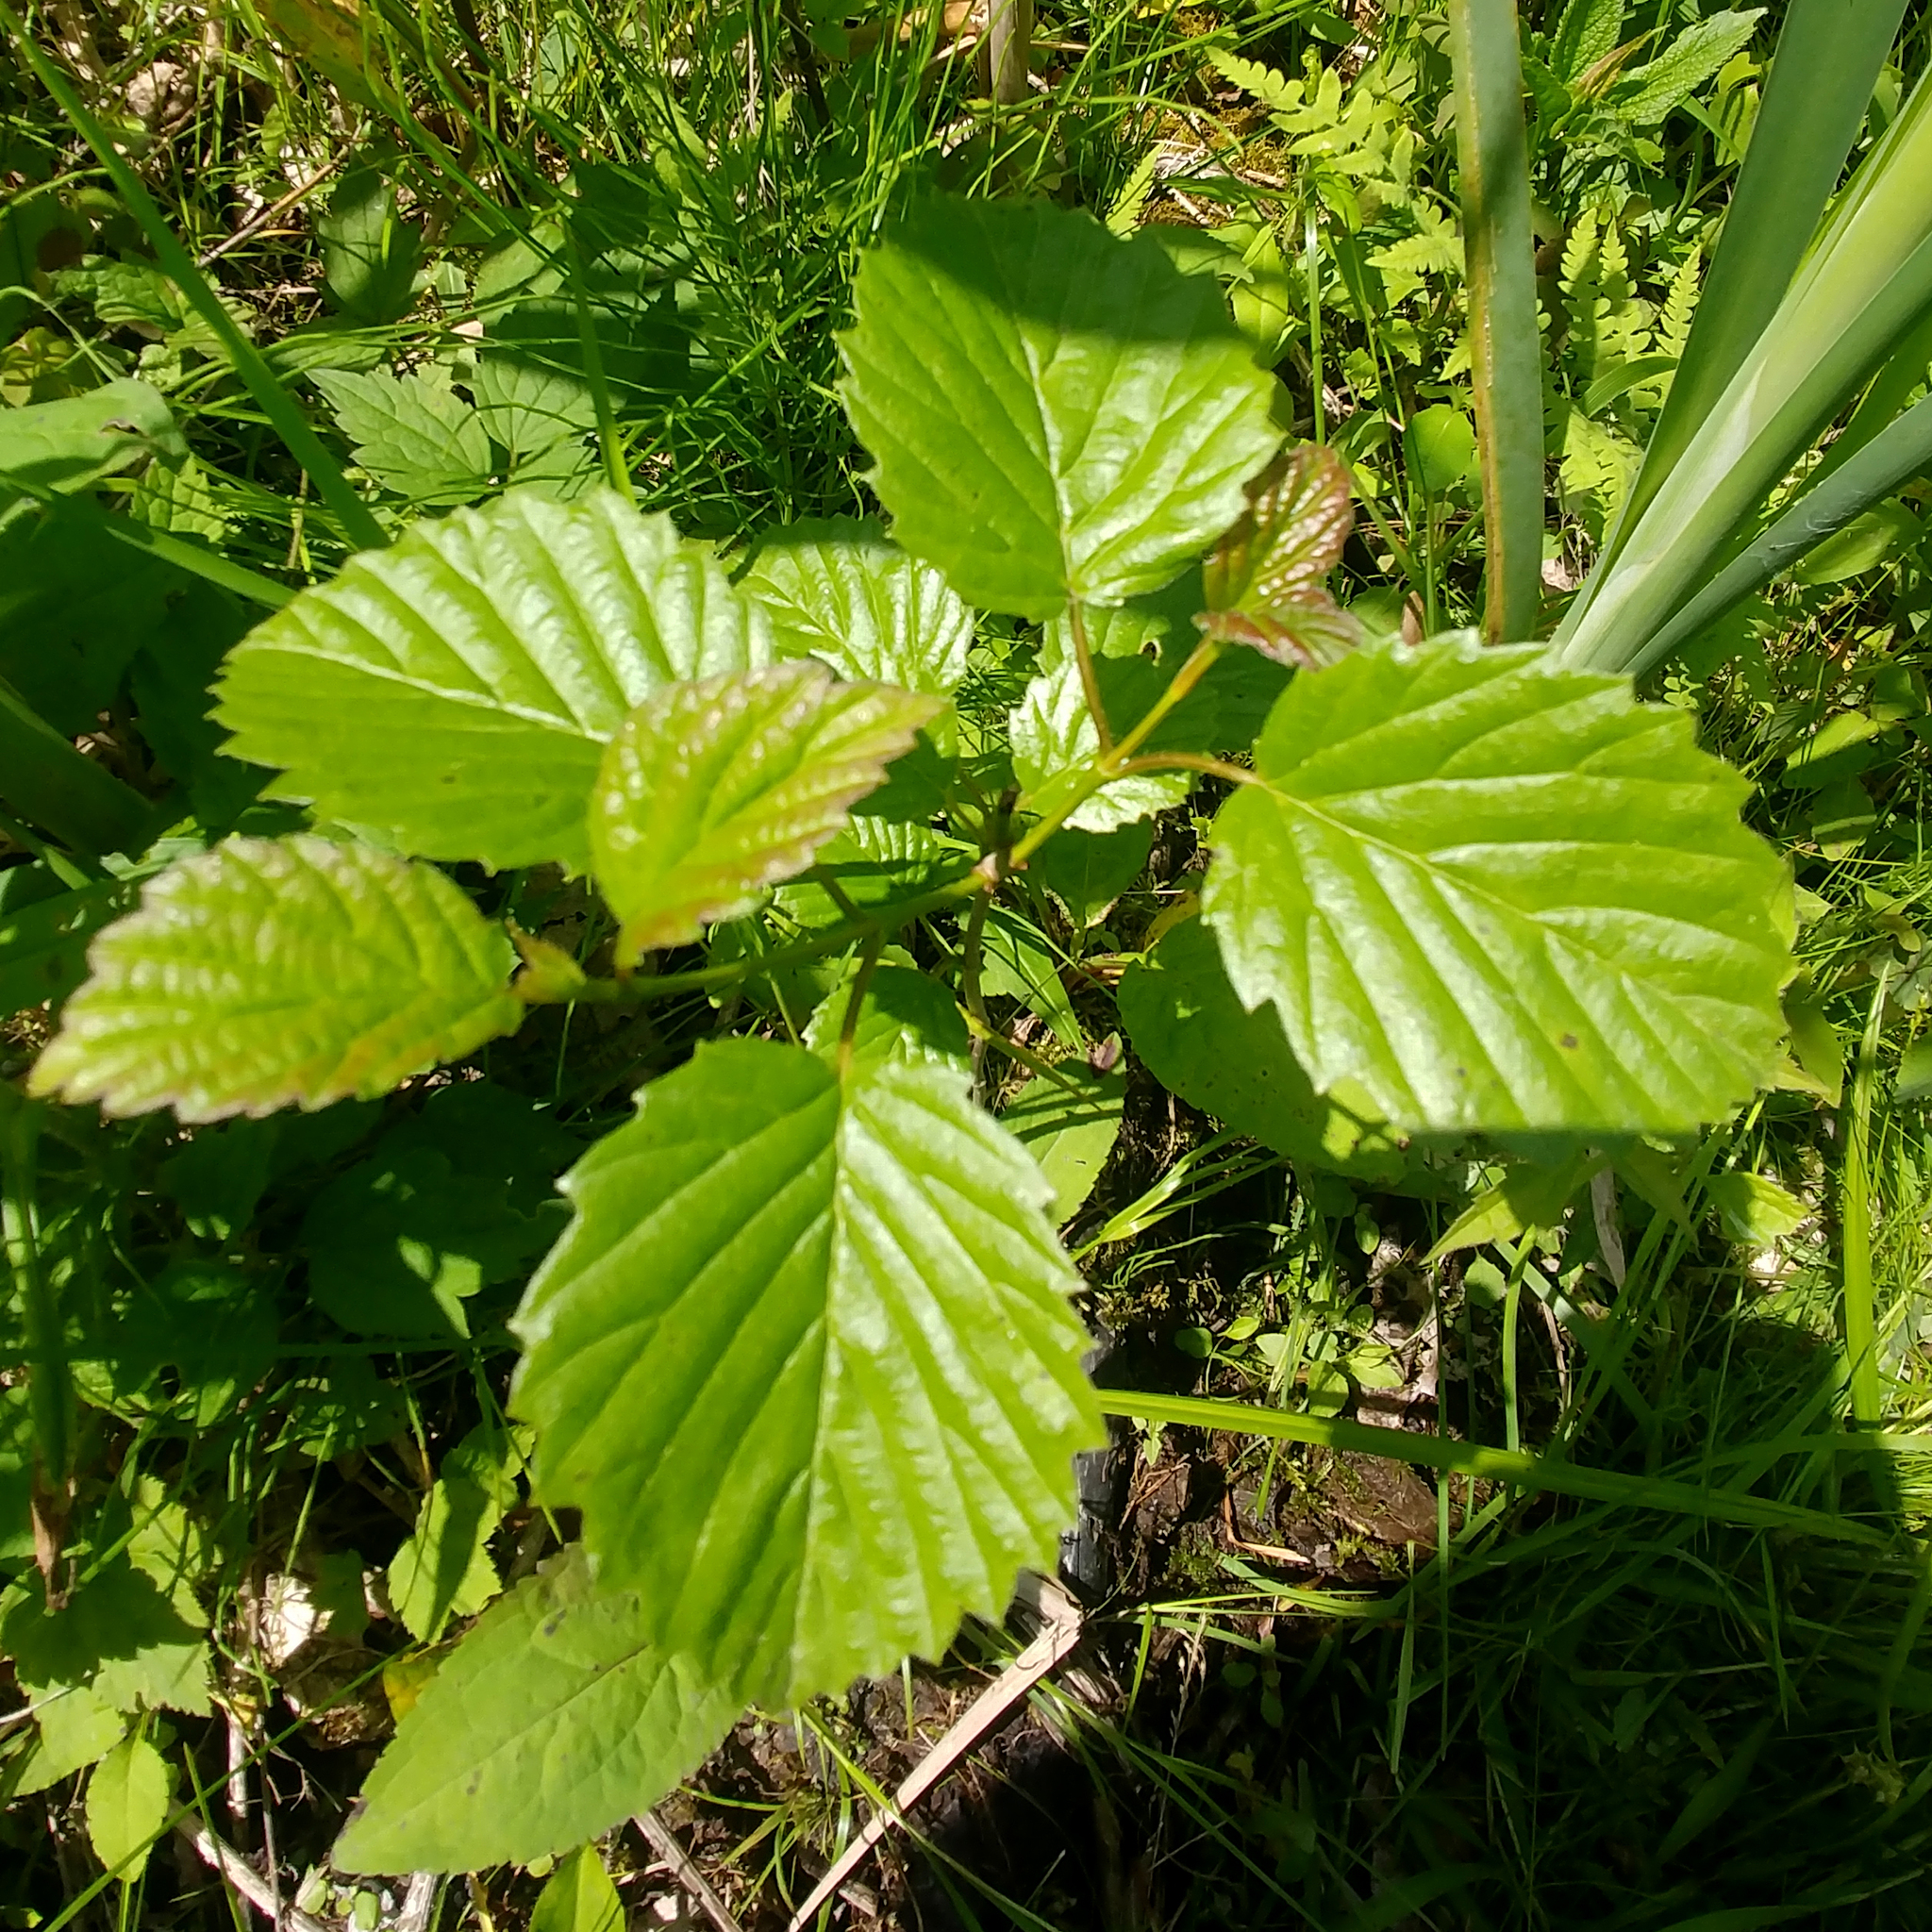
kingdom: Plantae
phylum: Tracheophyta
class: Magnoliopsida
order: Dipsacales
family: Viburnaceae
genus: Viburnum
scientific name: Viburnum recognitum
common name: Northern arrow-wood
